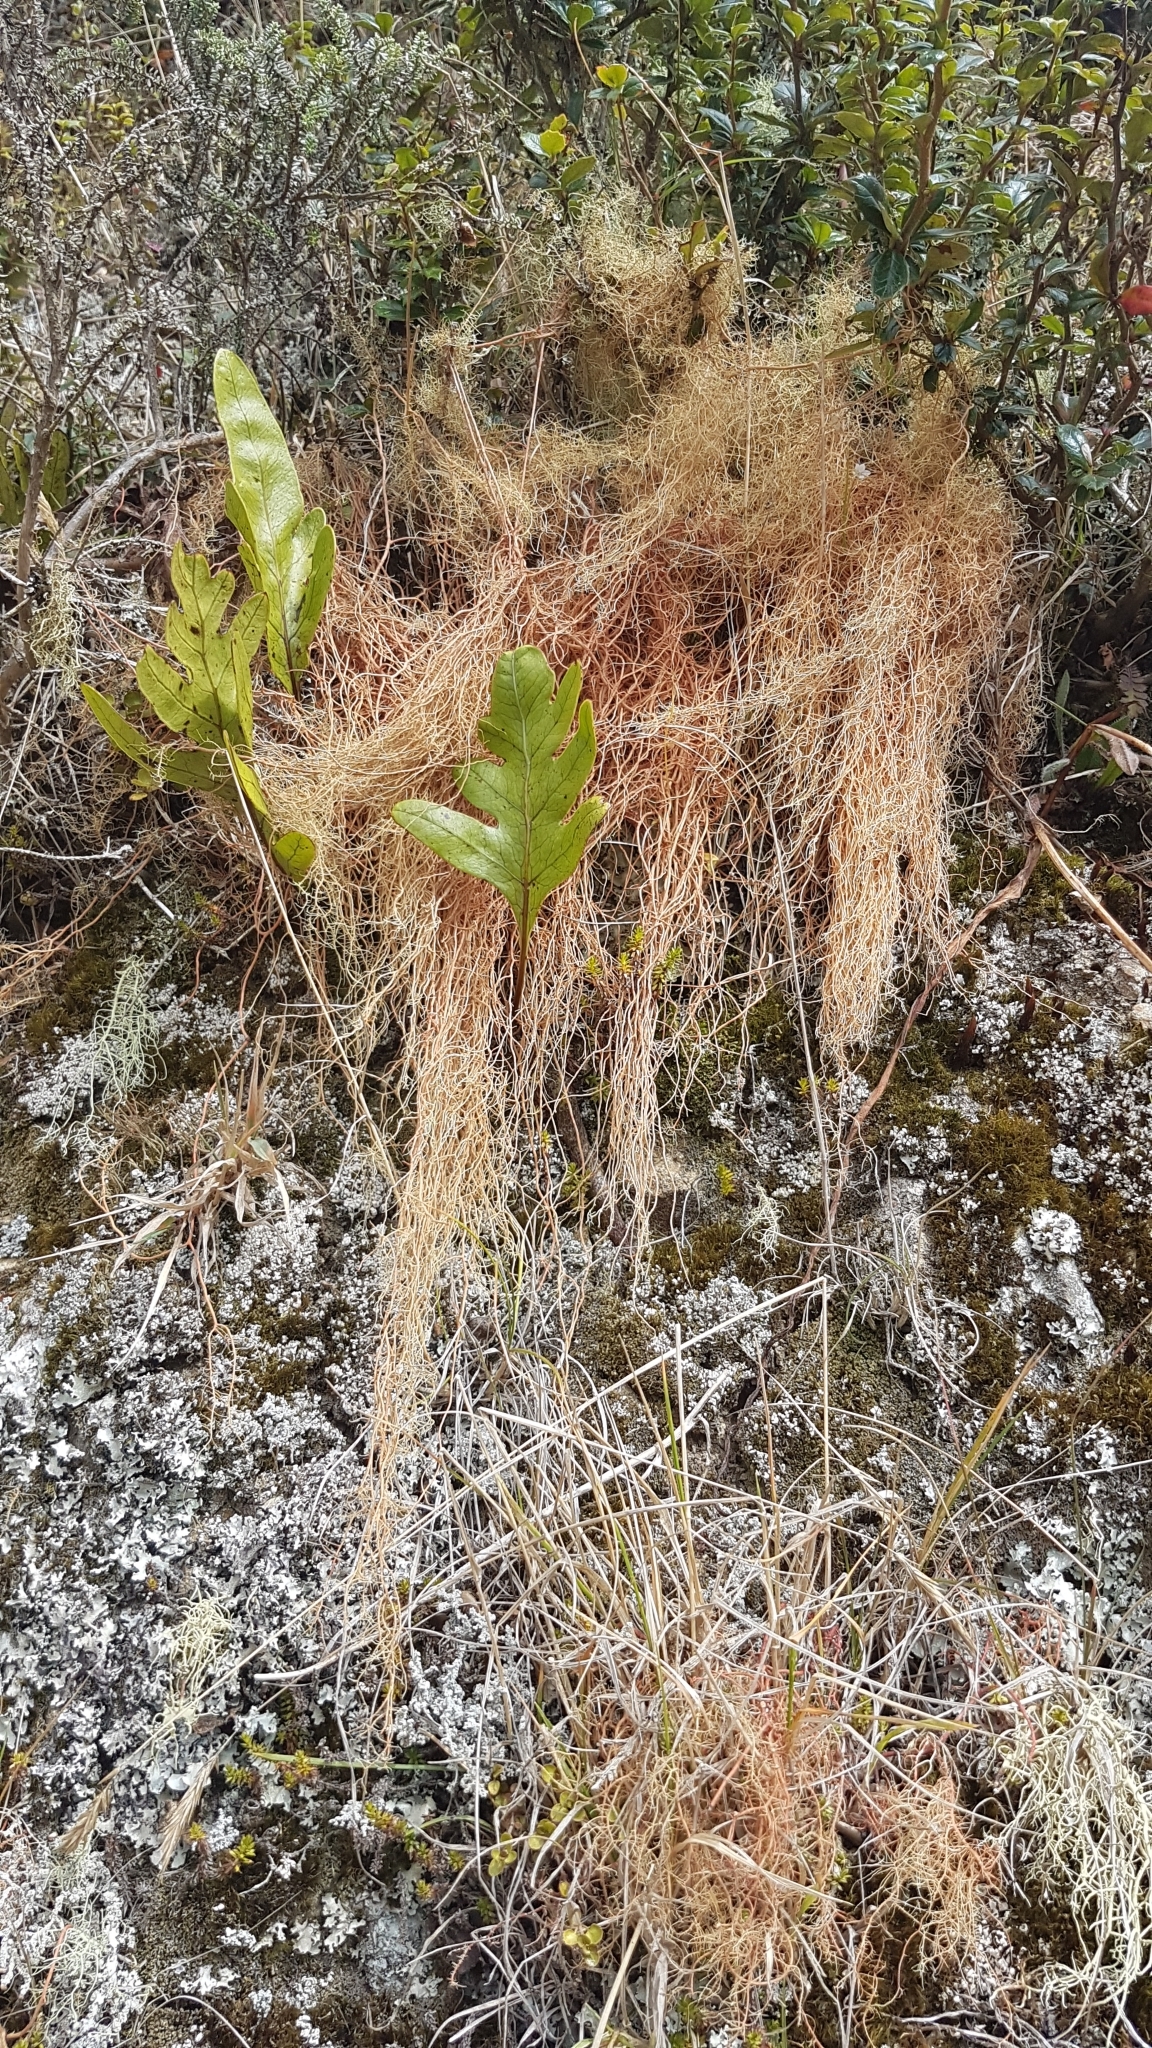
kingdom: Fungi
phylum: Ascomycota
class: Lecanoromycetes
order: Lecanorales
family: Parmeliaceae
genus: Usnea
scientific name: Usnea rubicunda
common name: Red beard lichen
